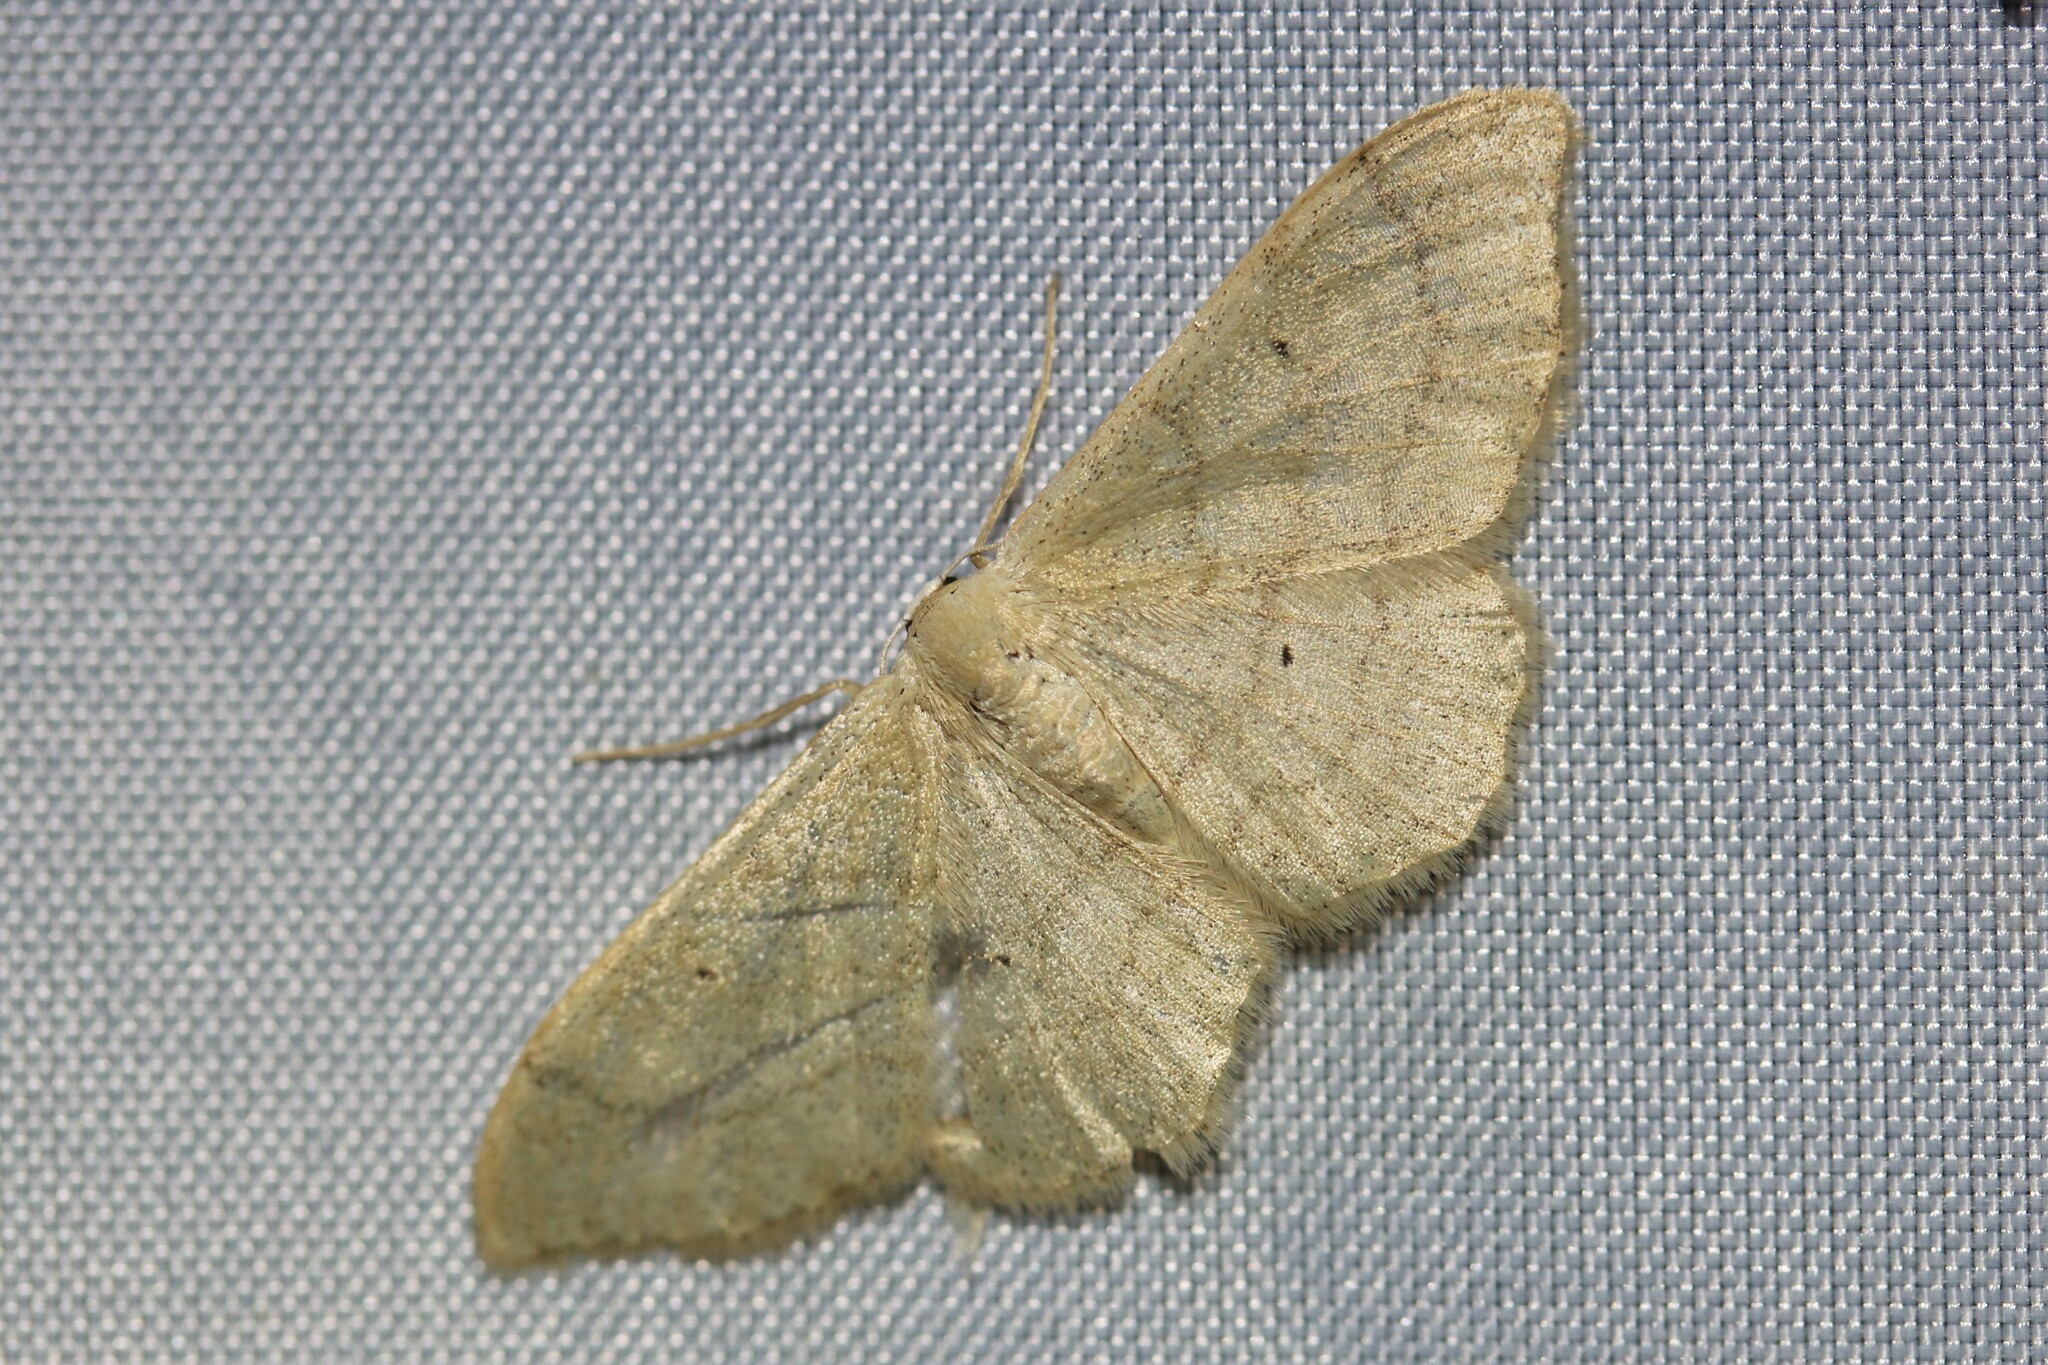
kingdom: Animalia
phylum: Arthropoda
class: Insecta
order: Lepidoptera
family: Geometridae
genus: Idaea
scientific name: Idaea straminata
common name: Plain wave
